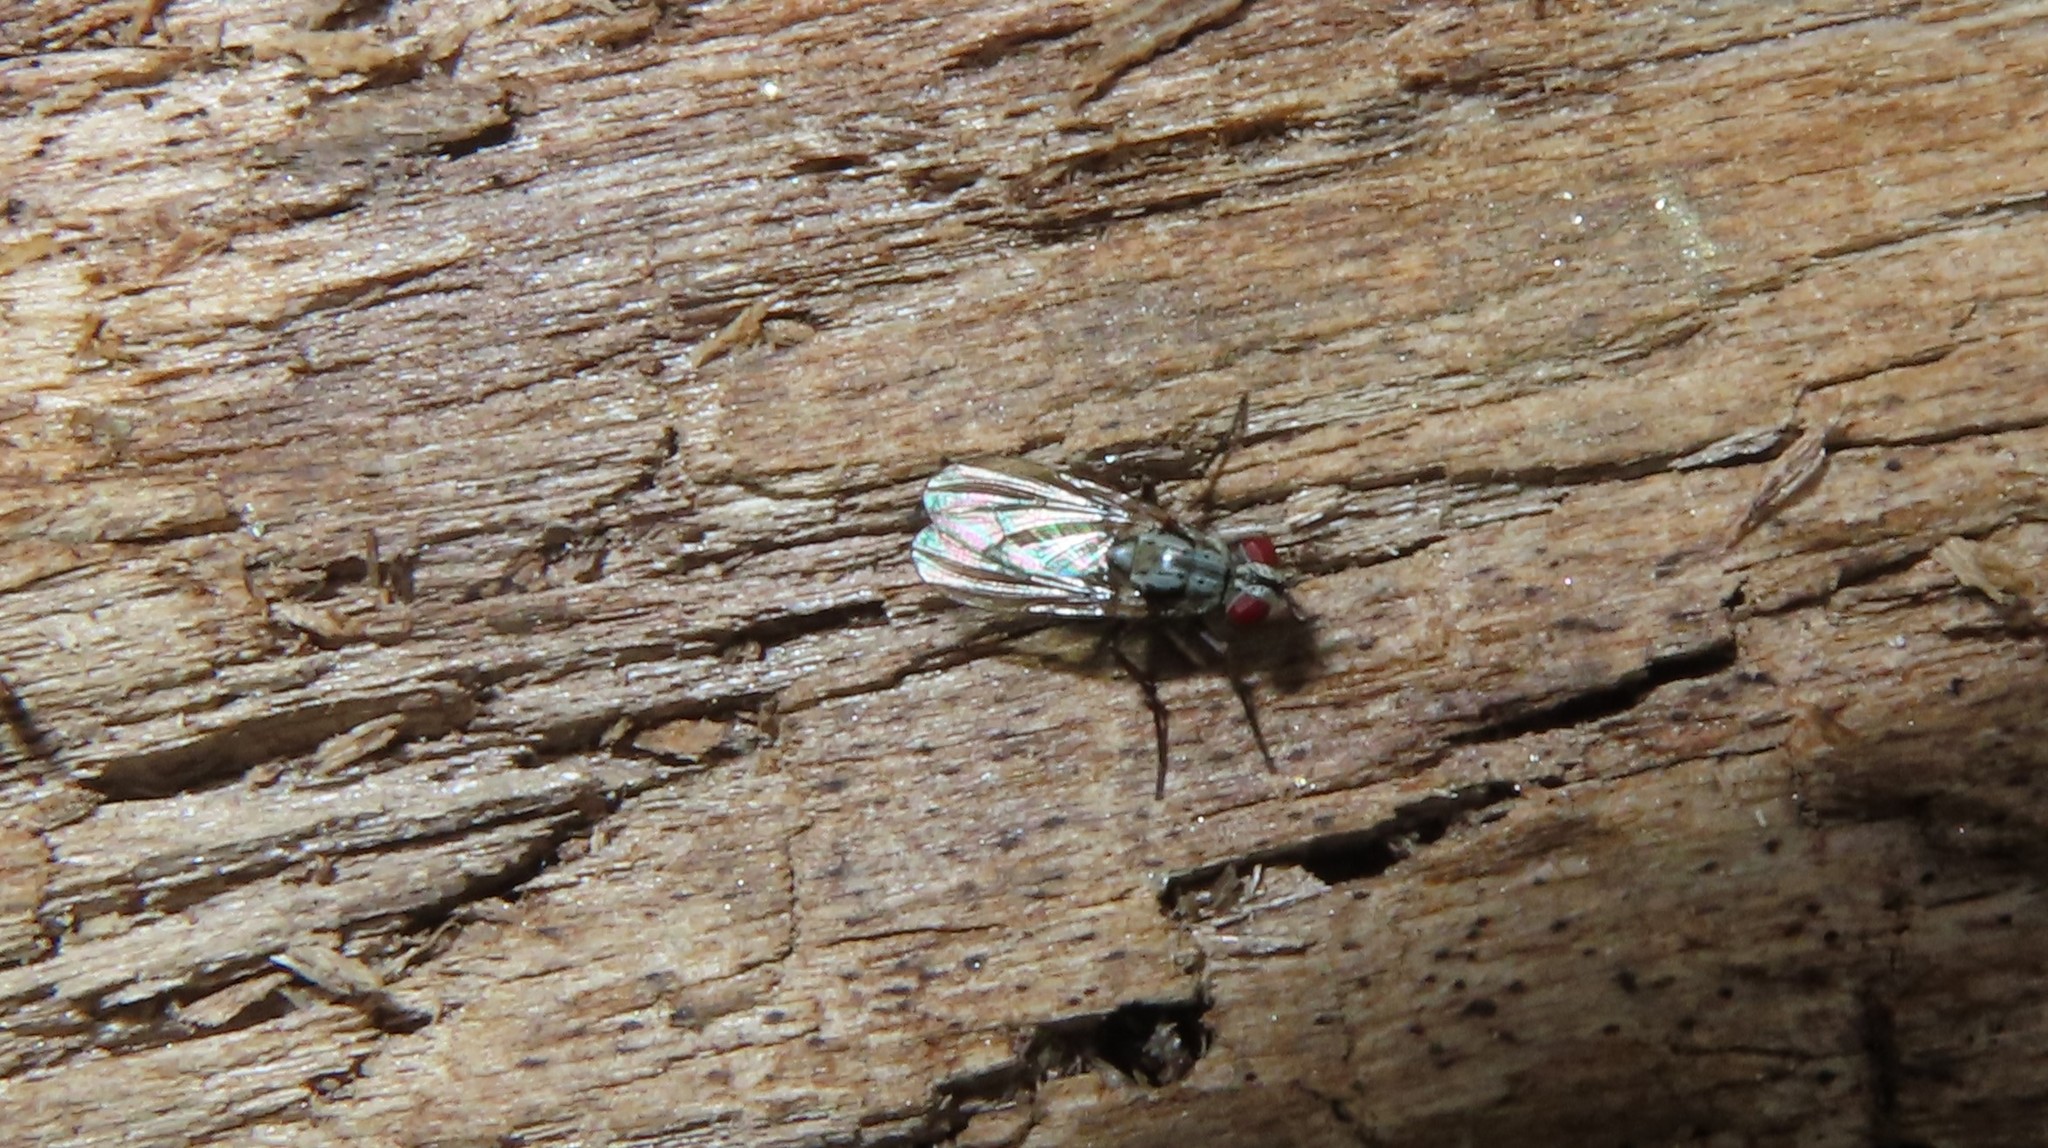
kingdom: Animalia
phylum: Arthropoda
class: Insecta
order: Diptera
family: Anthomyiidae
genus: Eustalomyia
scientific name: Eustalomyia vittipes
